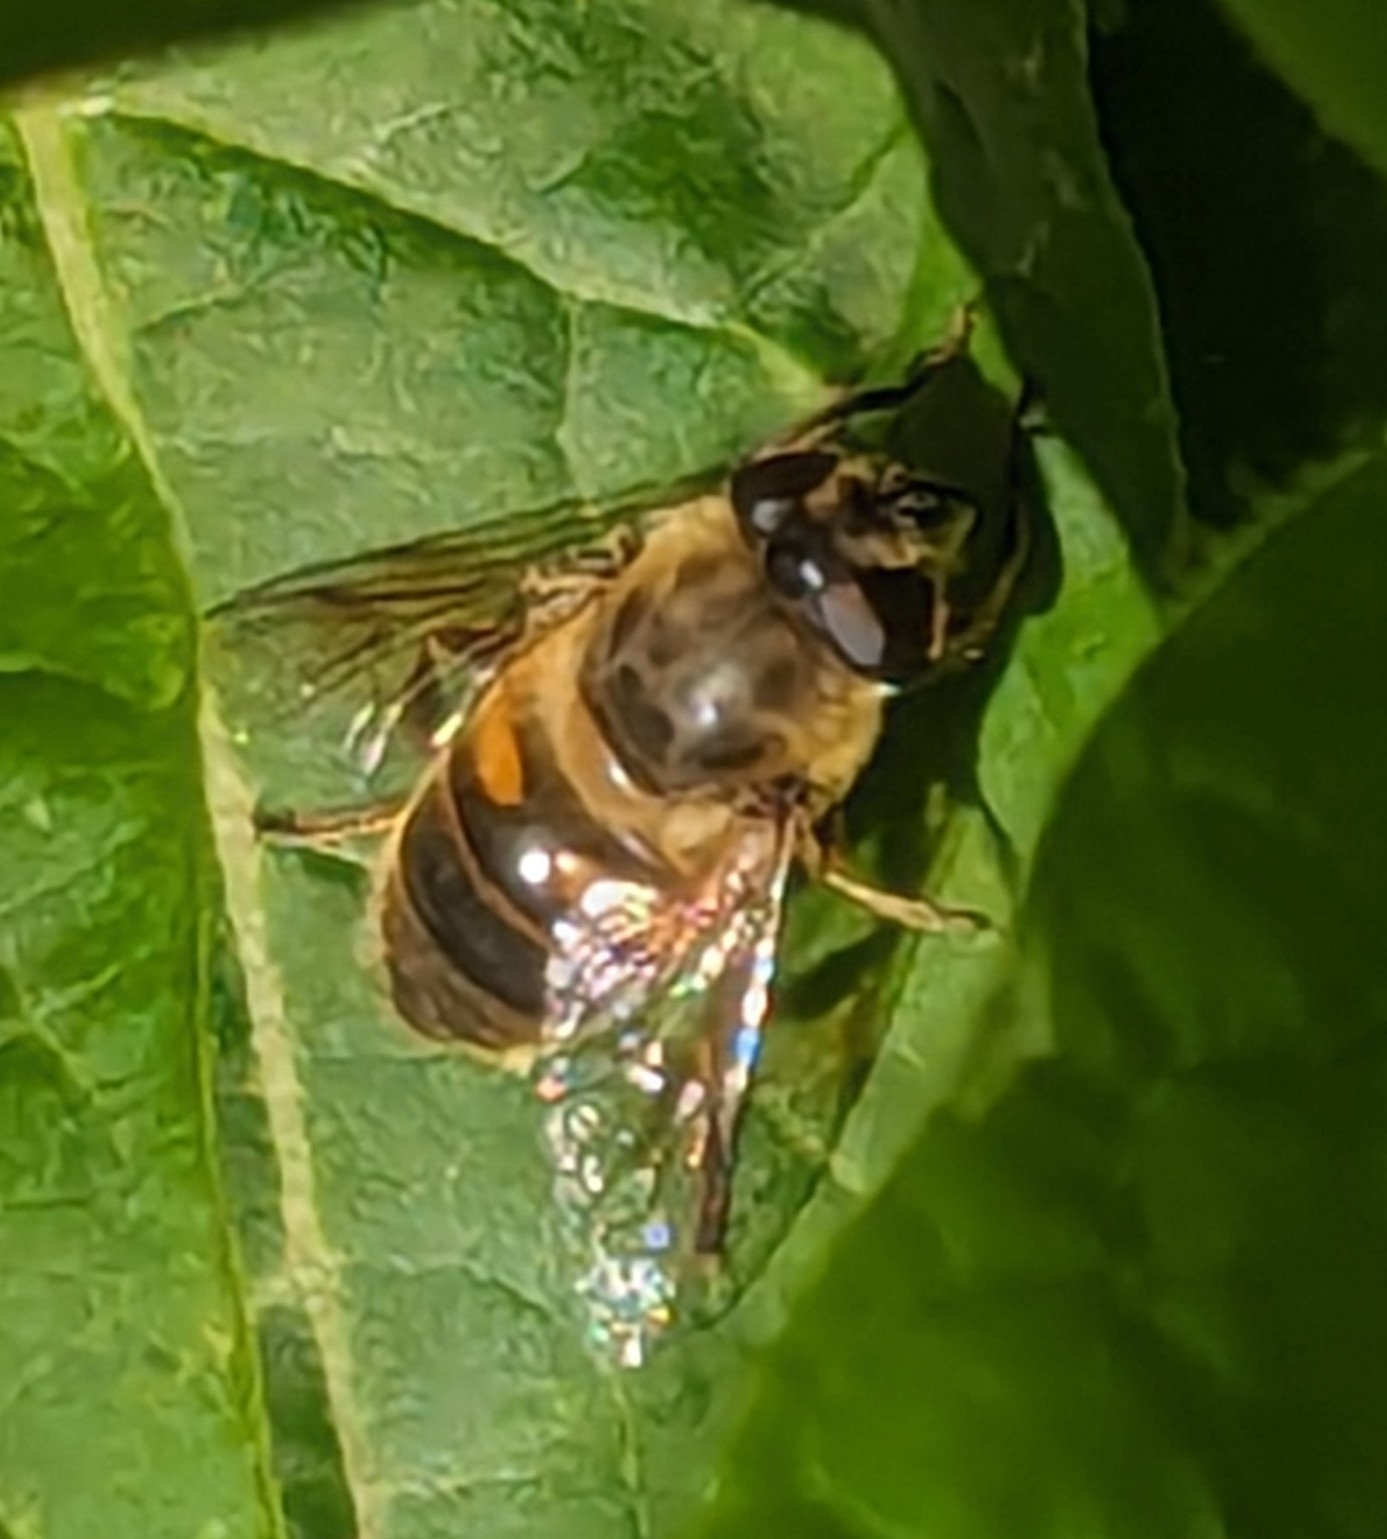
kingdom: Animalia
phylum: Arthropoda
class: Insecta
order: Diptera
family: Syrphidae
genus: Eristalis
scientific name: Eristalis tenax
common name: Drone fly
